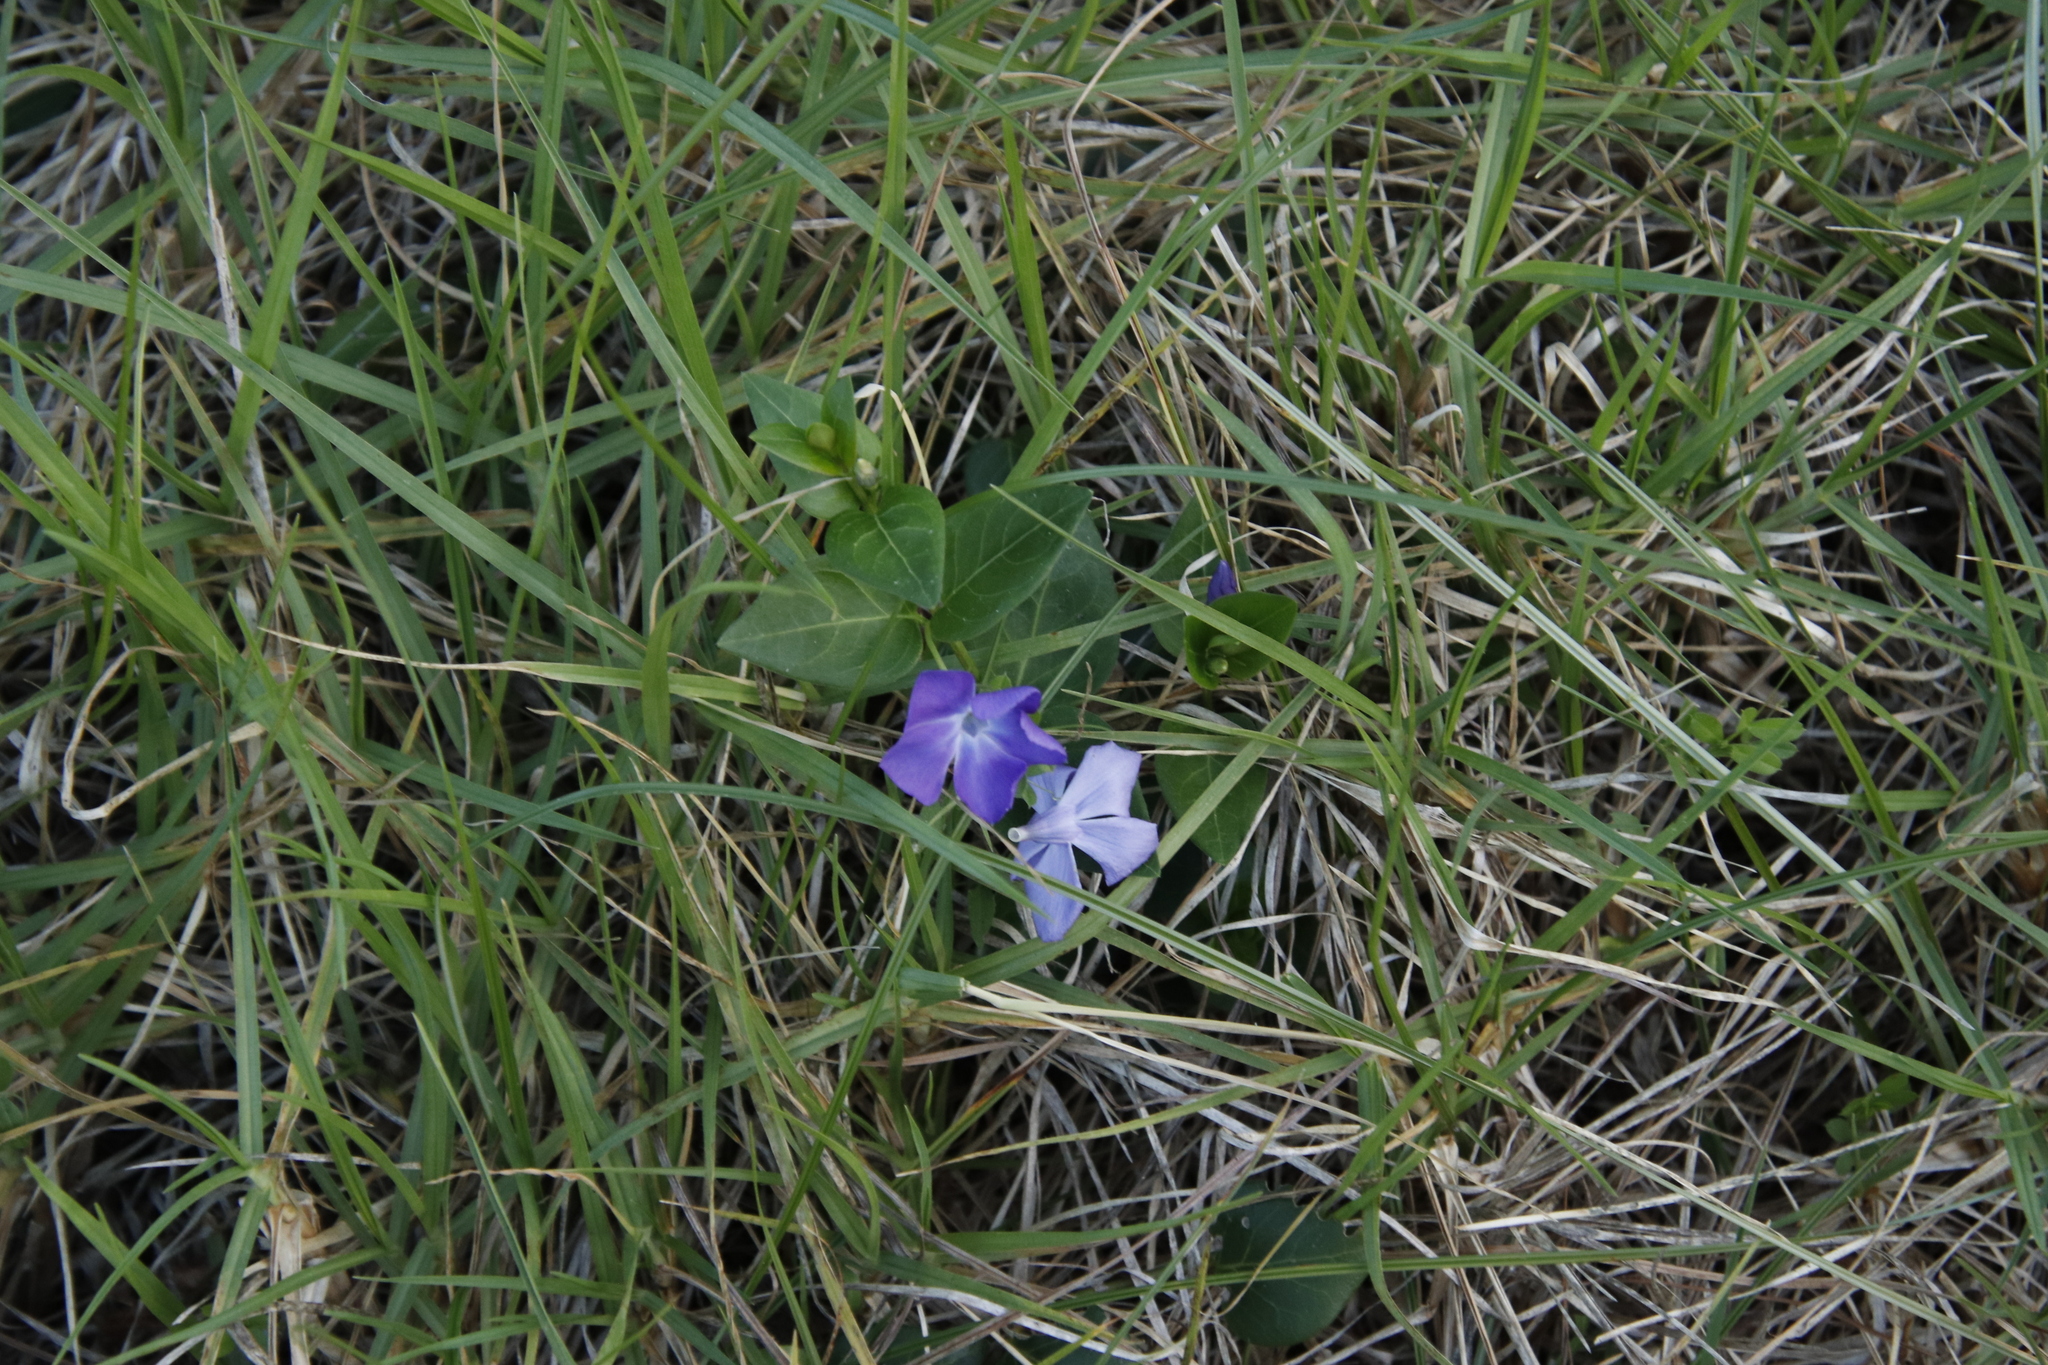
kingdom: Plantae
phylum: Tracheophyta
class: Magnoliopsida
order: Gentianales
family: Apocynaceae
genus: Vinca
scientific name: Vinca major
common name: Greater periwinkle
